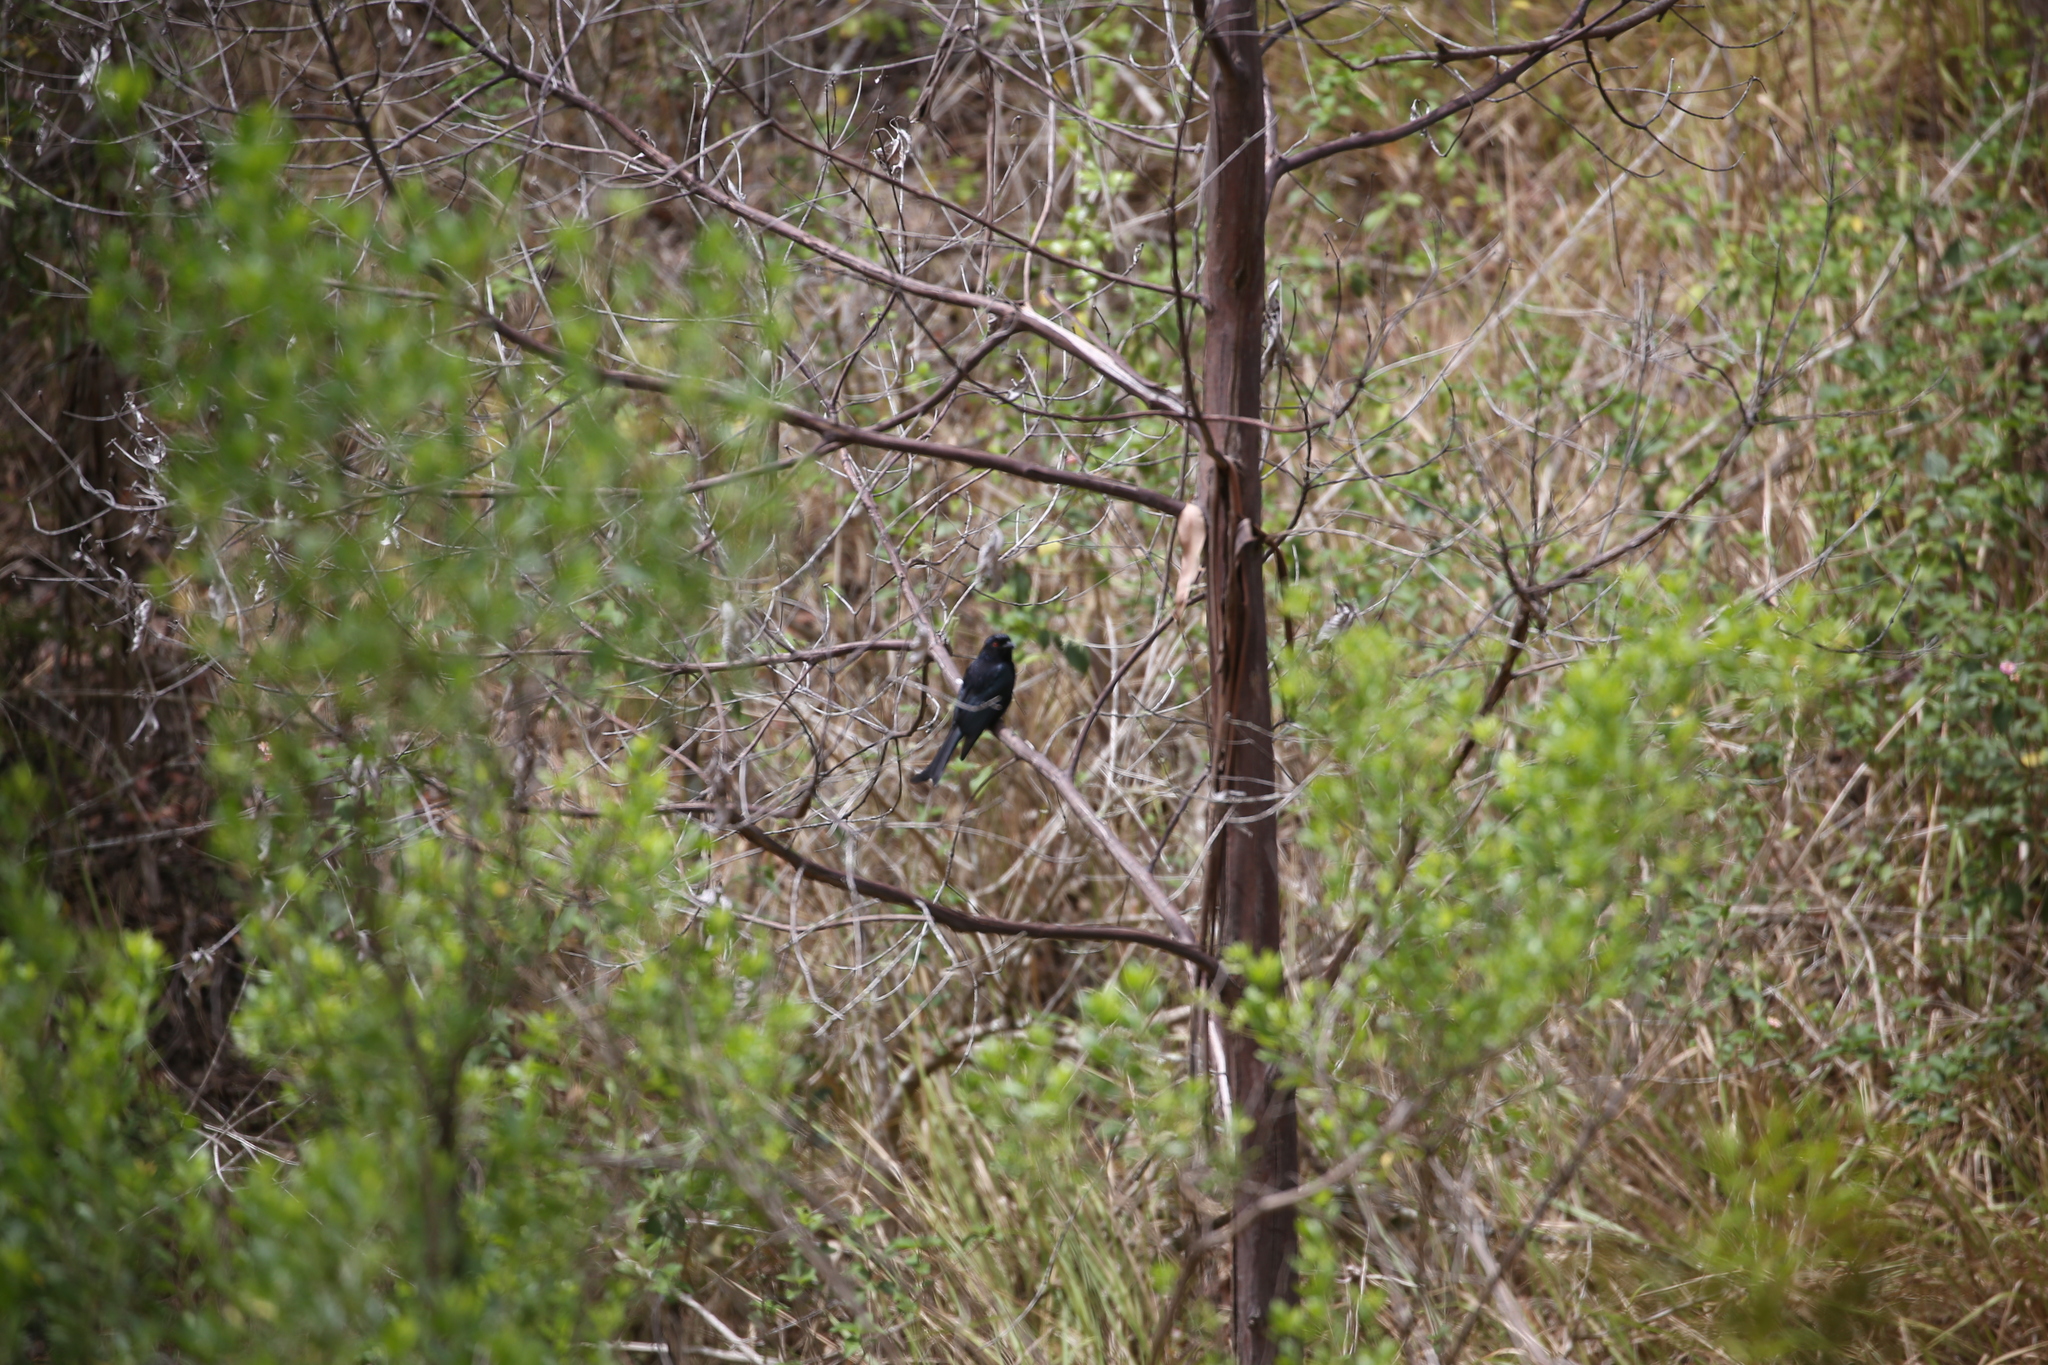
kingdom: Animalia
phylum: Chordata
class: Aves
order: Passeriformes
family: Dicruridae
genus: Dicrurus
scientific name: Dicrurus bracteatus
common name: Spangled drongo
